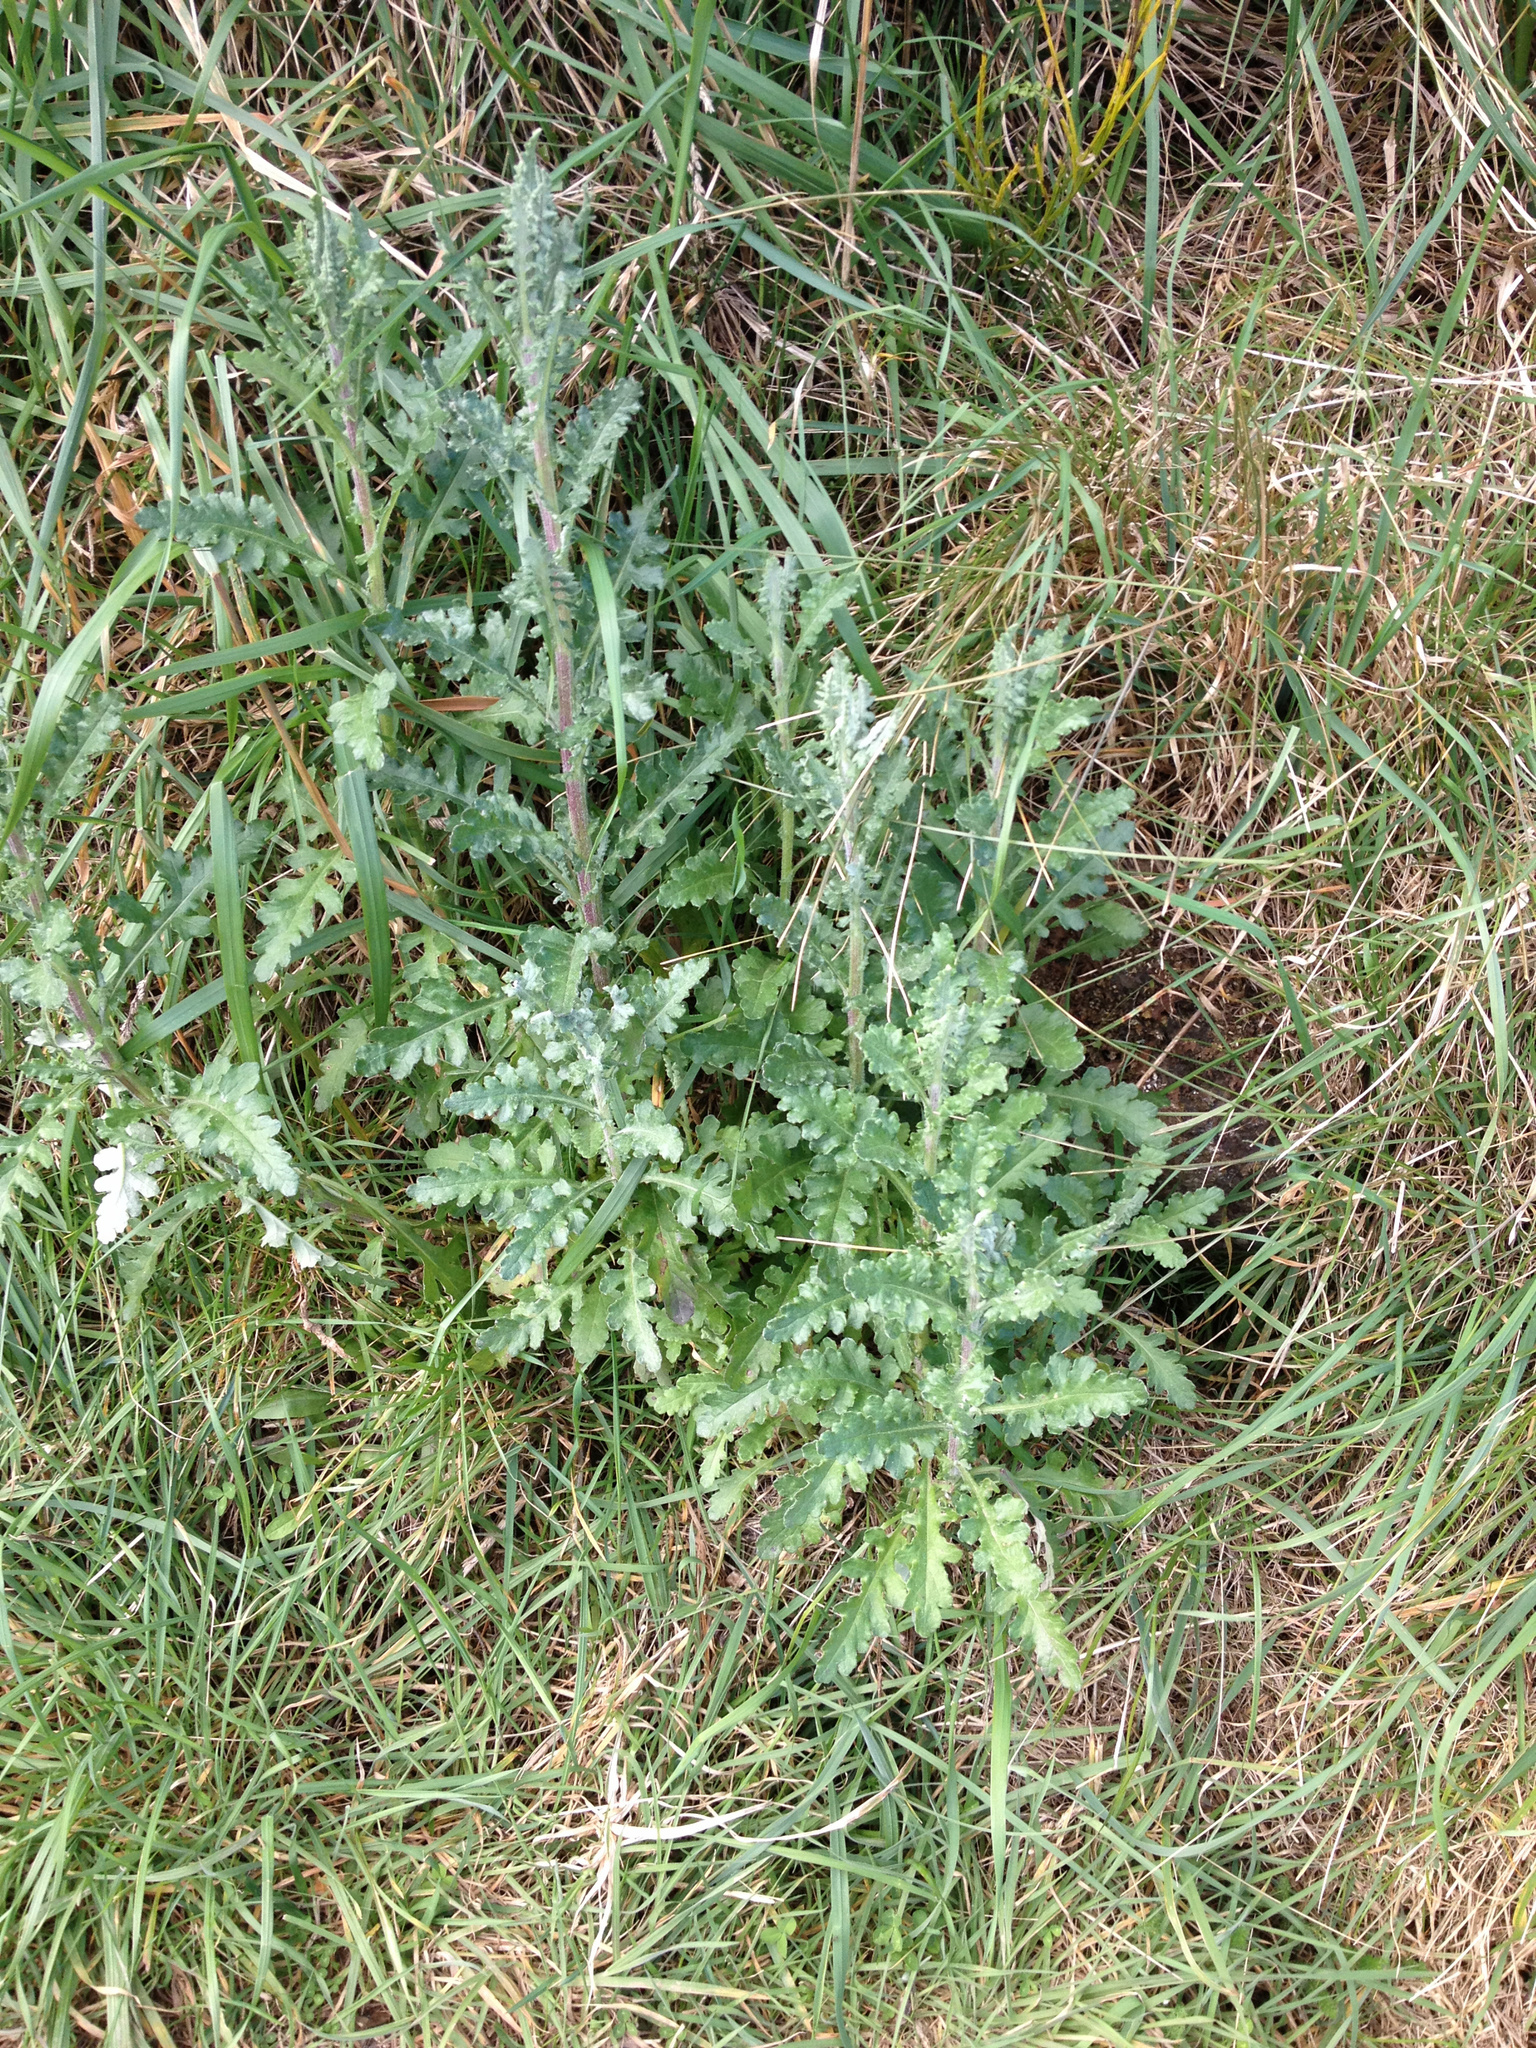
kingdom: Plantae
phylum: Tracheophyta
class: Magnoliopsida
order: Asterales
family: Asteraceae
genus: Senecio
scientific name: Senecio glomeratus
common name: Cutleaf burnweed
